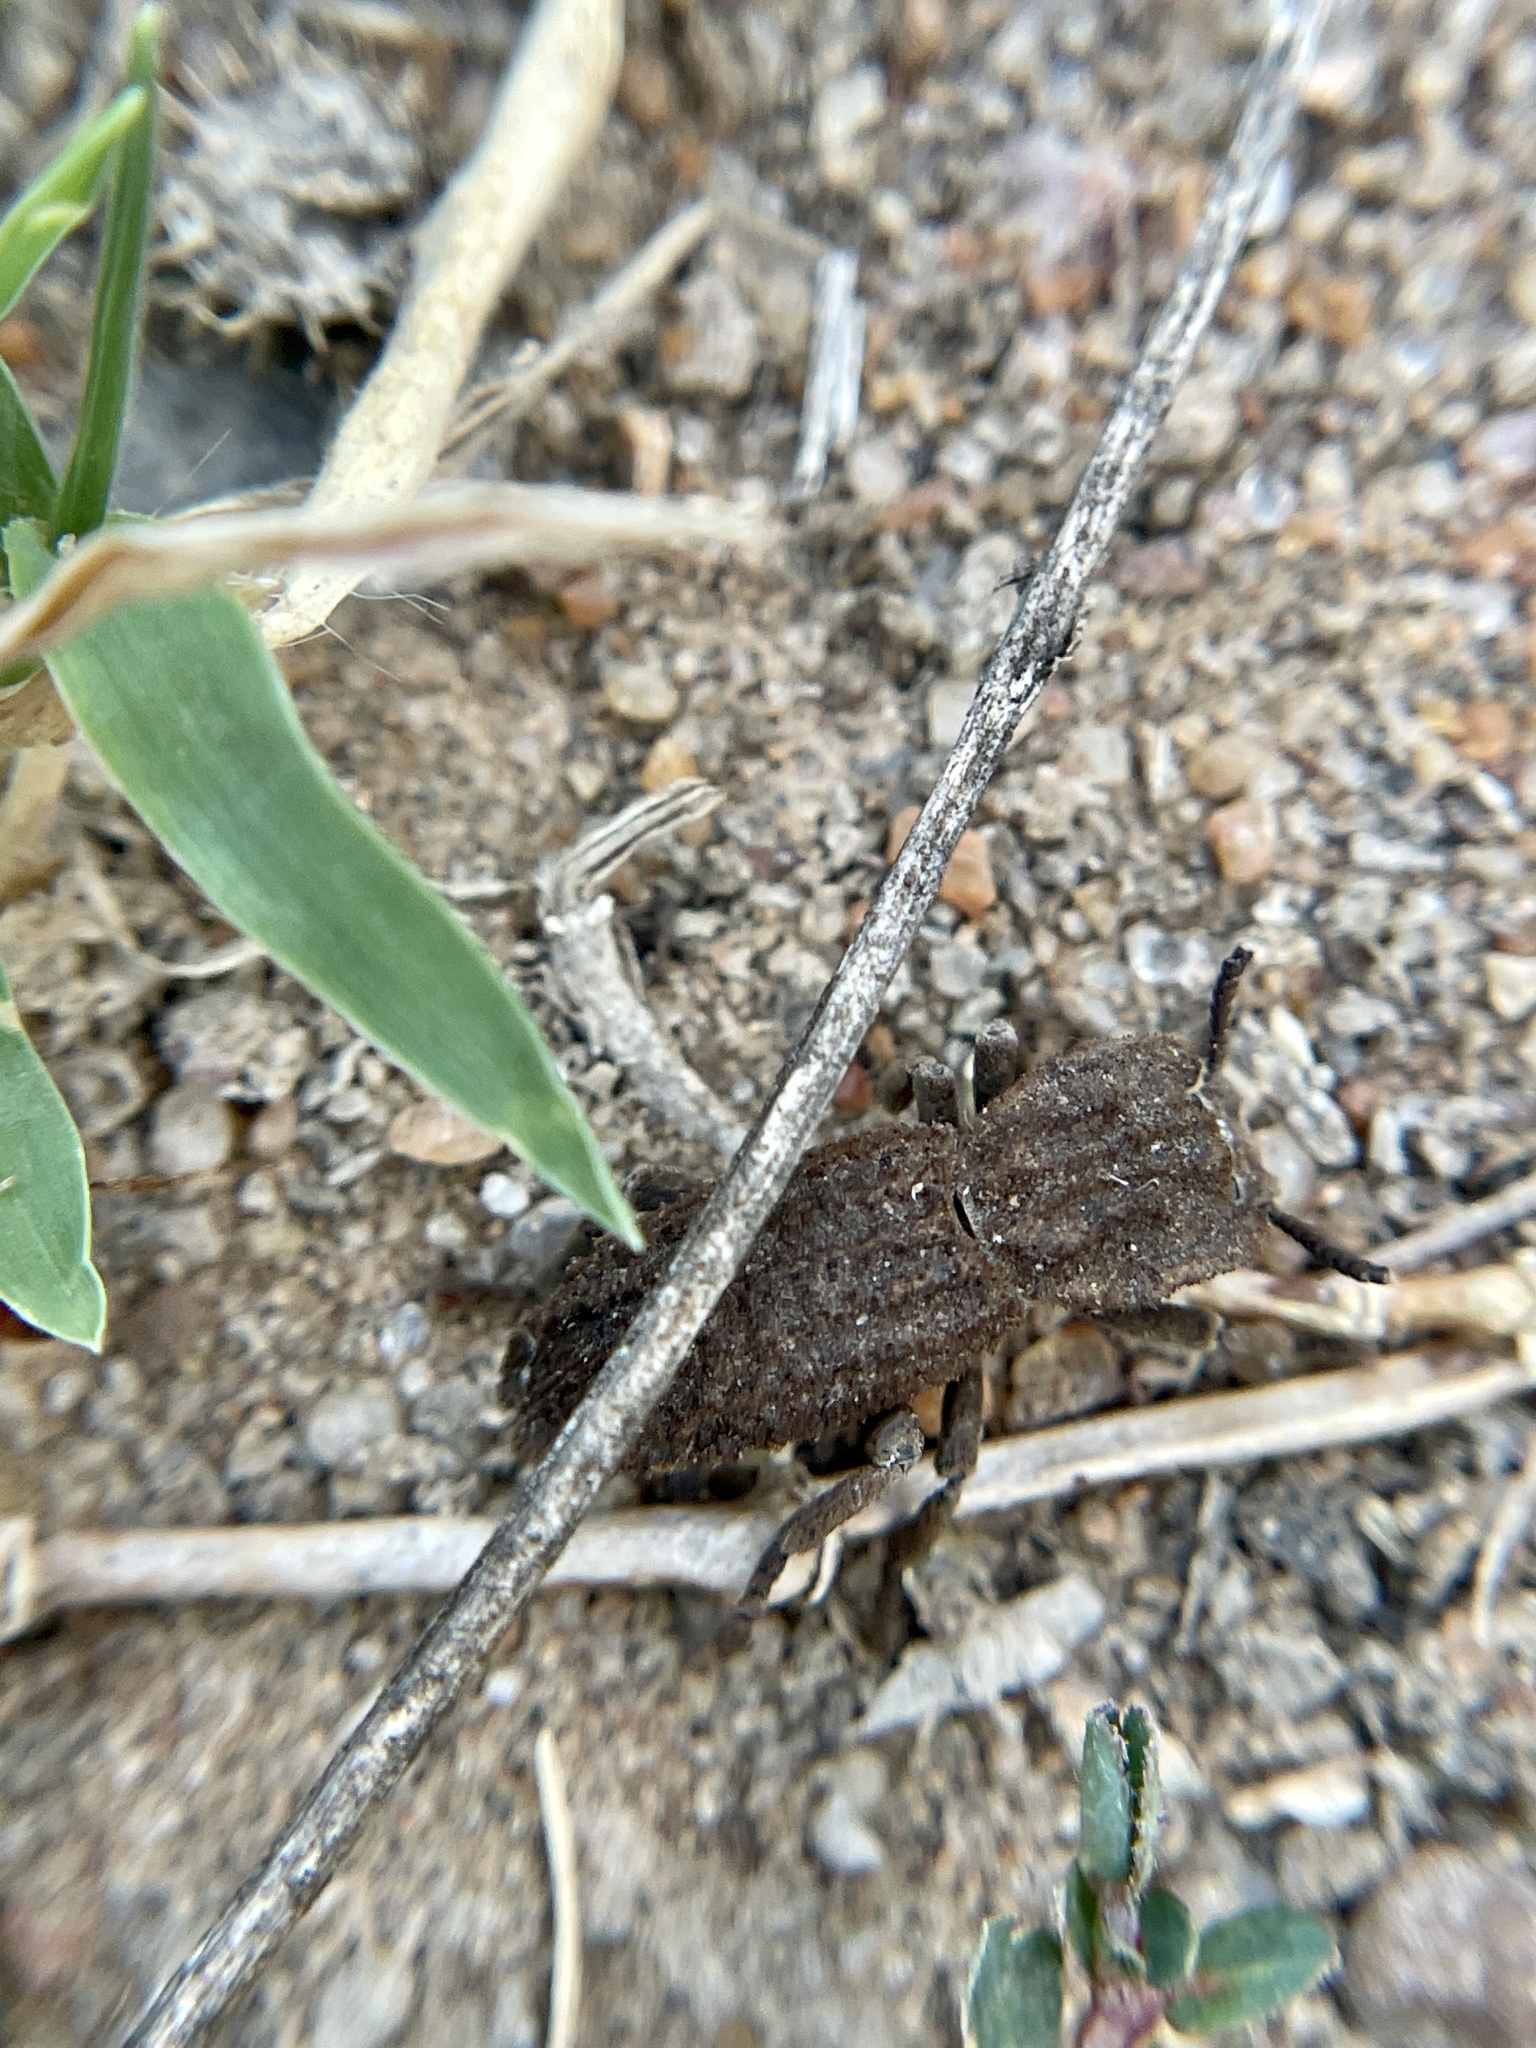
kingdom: Animalia
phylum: Arthropoda
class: Insecta
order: Coleoptera
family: Zopheridae
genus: Sesaspis
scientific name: Sesaspis
